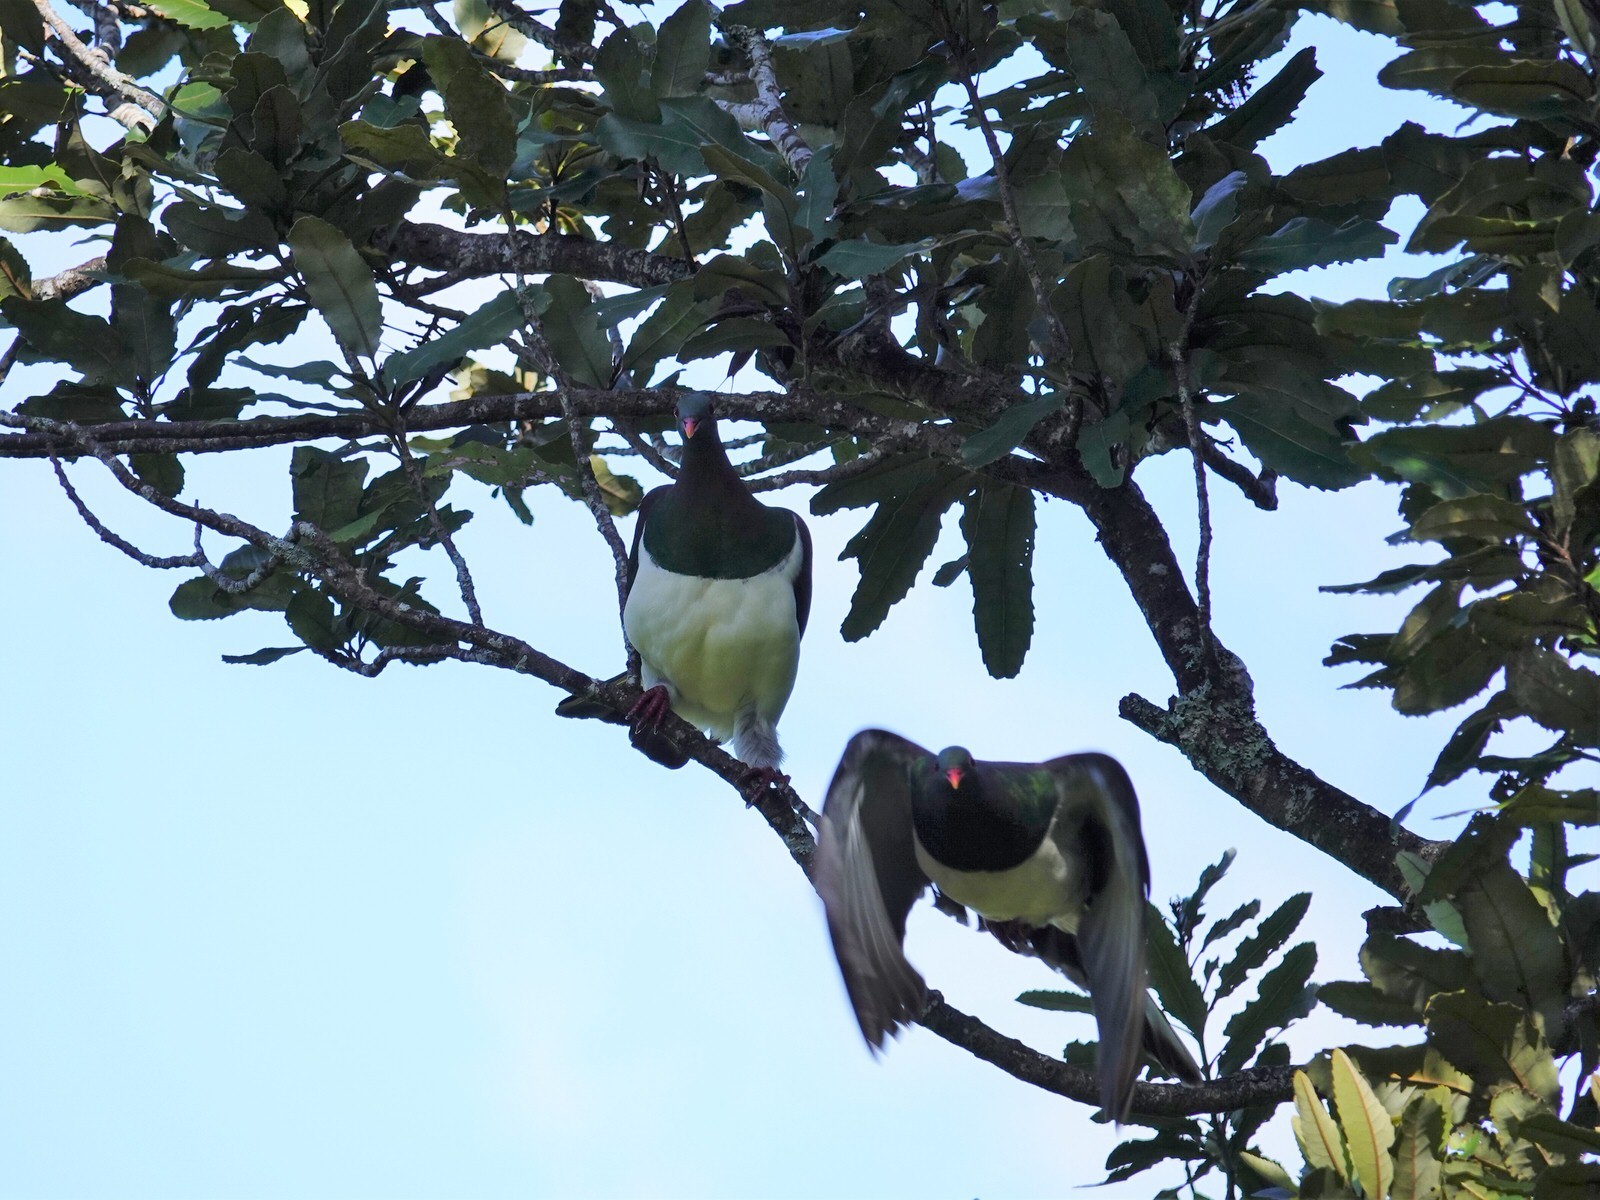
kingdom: Animalia
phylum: Chordata
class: Aves
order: Columbiformes
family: Columbidae
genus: Hemiphaga
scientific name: Hemiphaga novaeseelandiae
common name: New zealand pigeon
